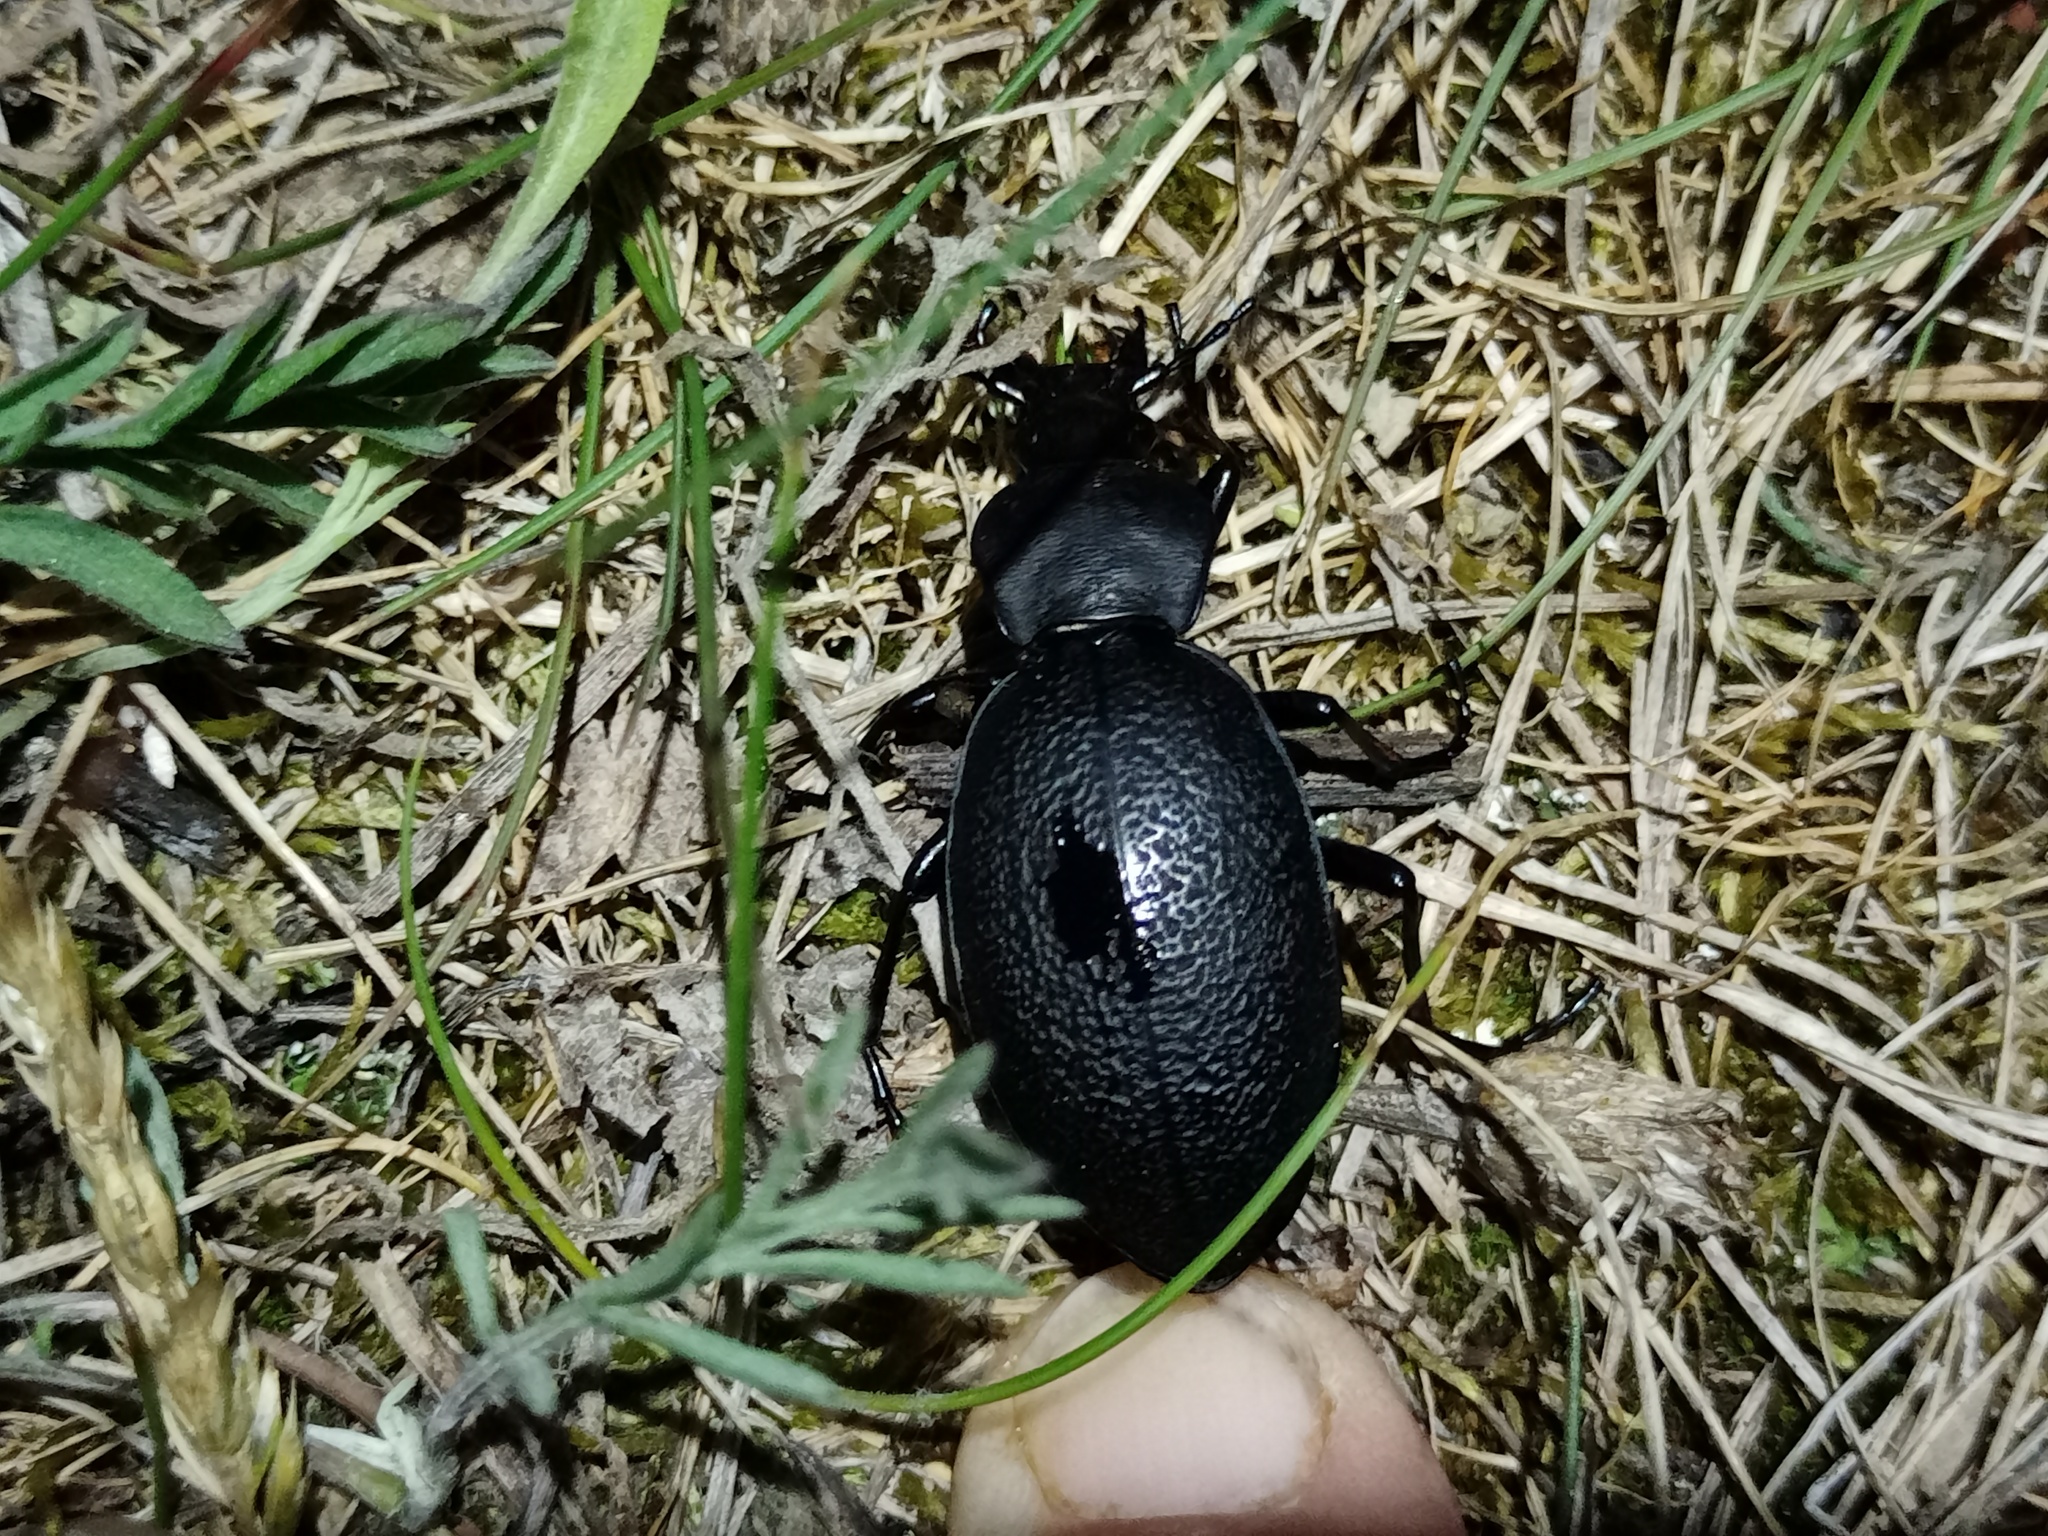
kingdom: Animalia
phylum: Arthropoda
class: Insecta
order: Coleoptera
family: Carabidae
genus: Carabus
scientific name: Carabus coriaceus
